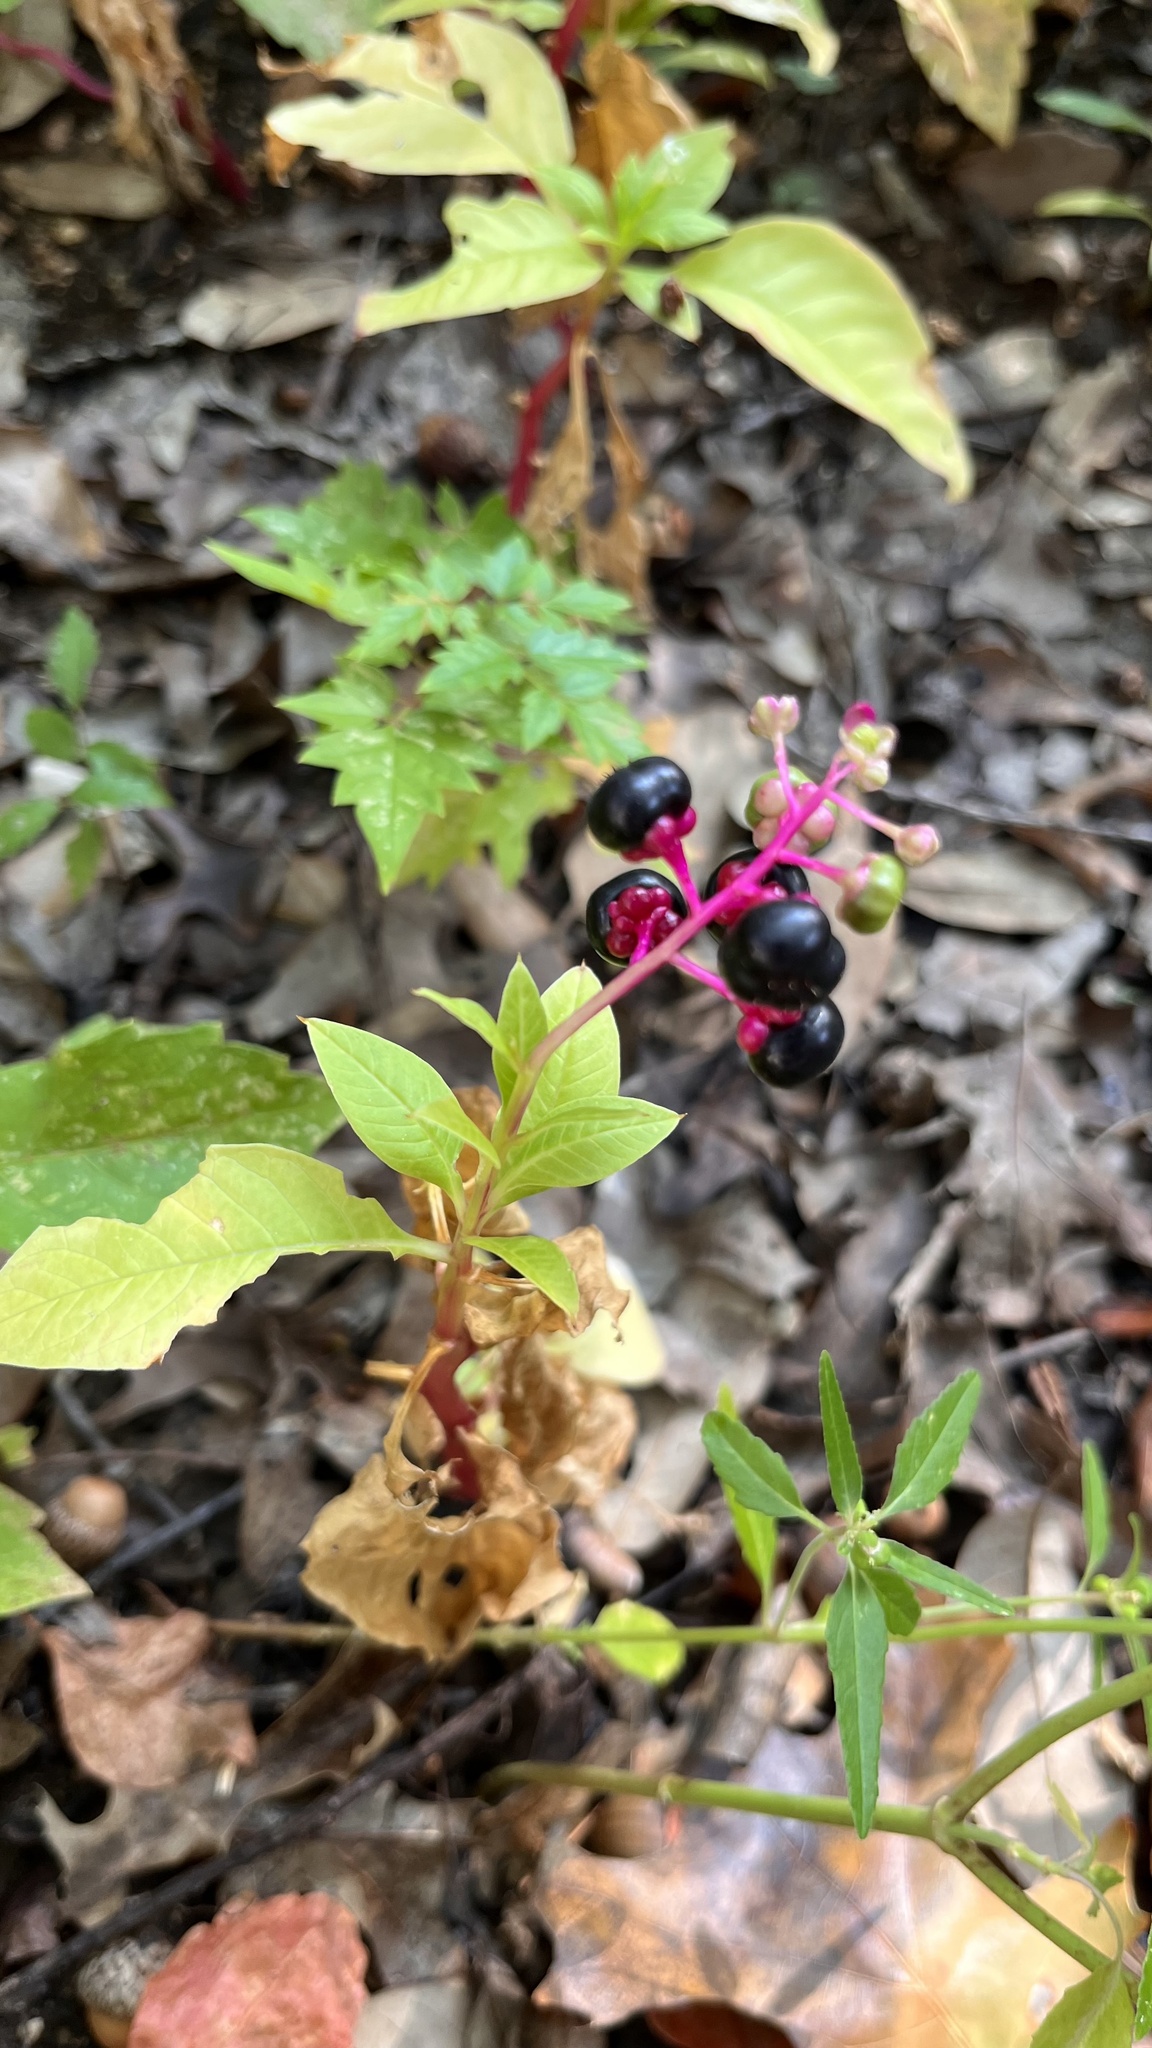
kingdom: Plantae
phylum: Tracheophyta
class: Magnoliopsida
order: Caryophyllales
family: Phytolaccaceae
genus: Phytolacca
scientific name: Phytolacca americana
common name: American pokeweed
